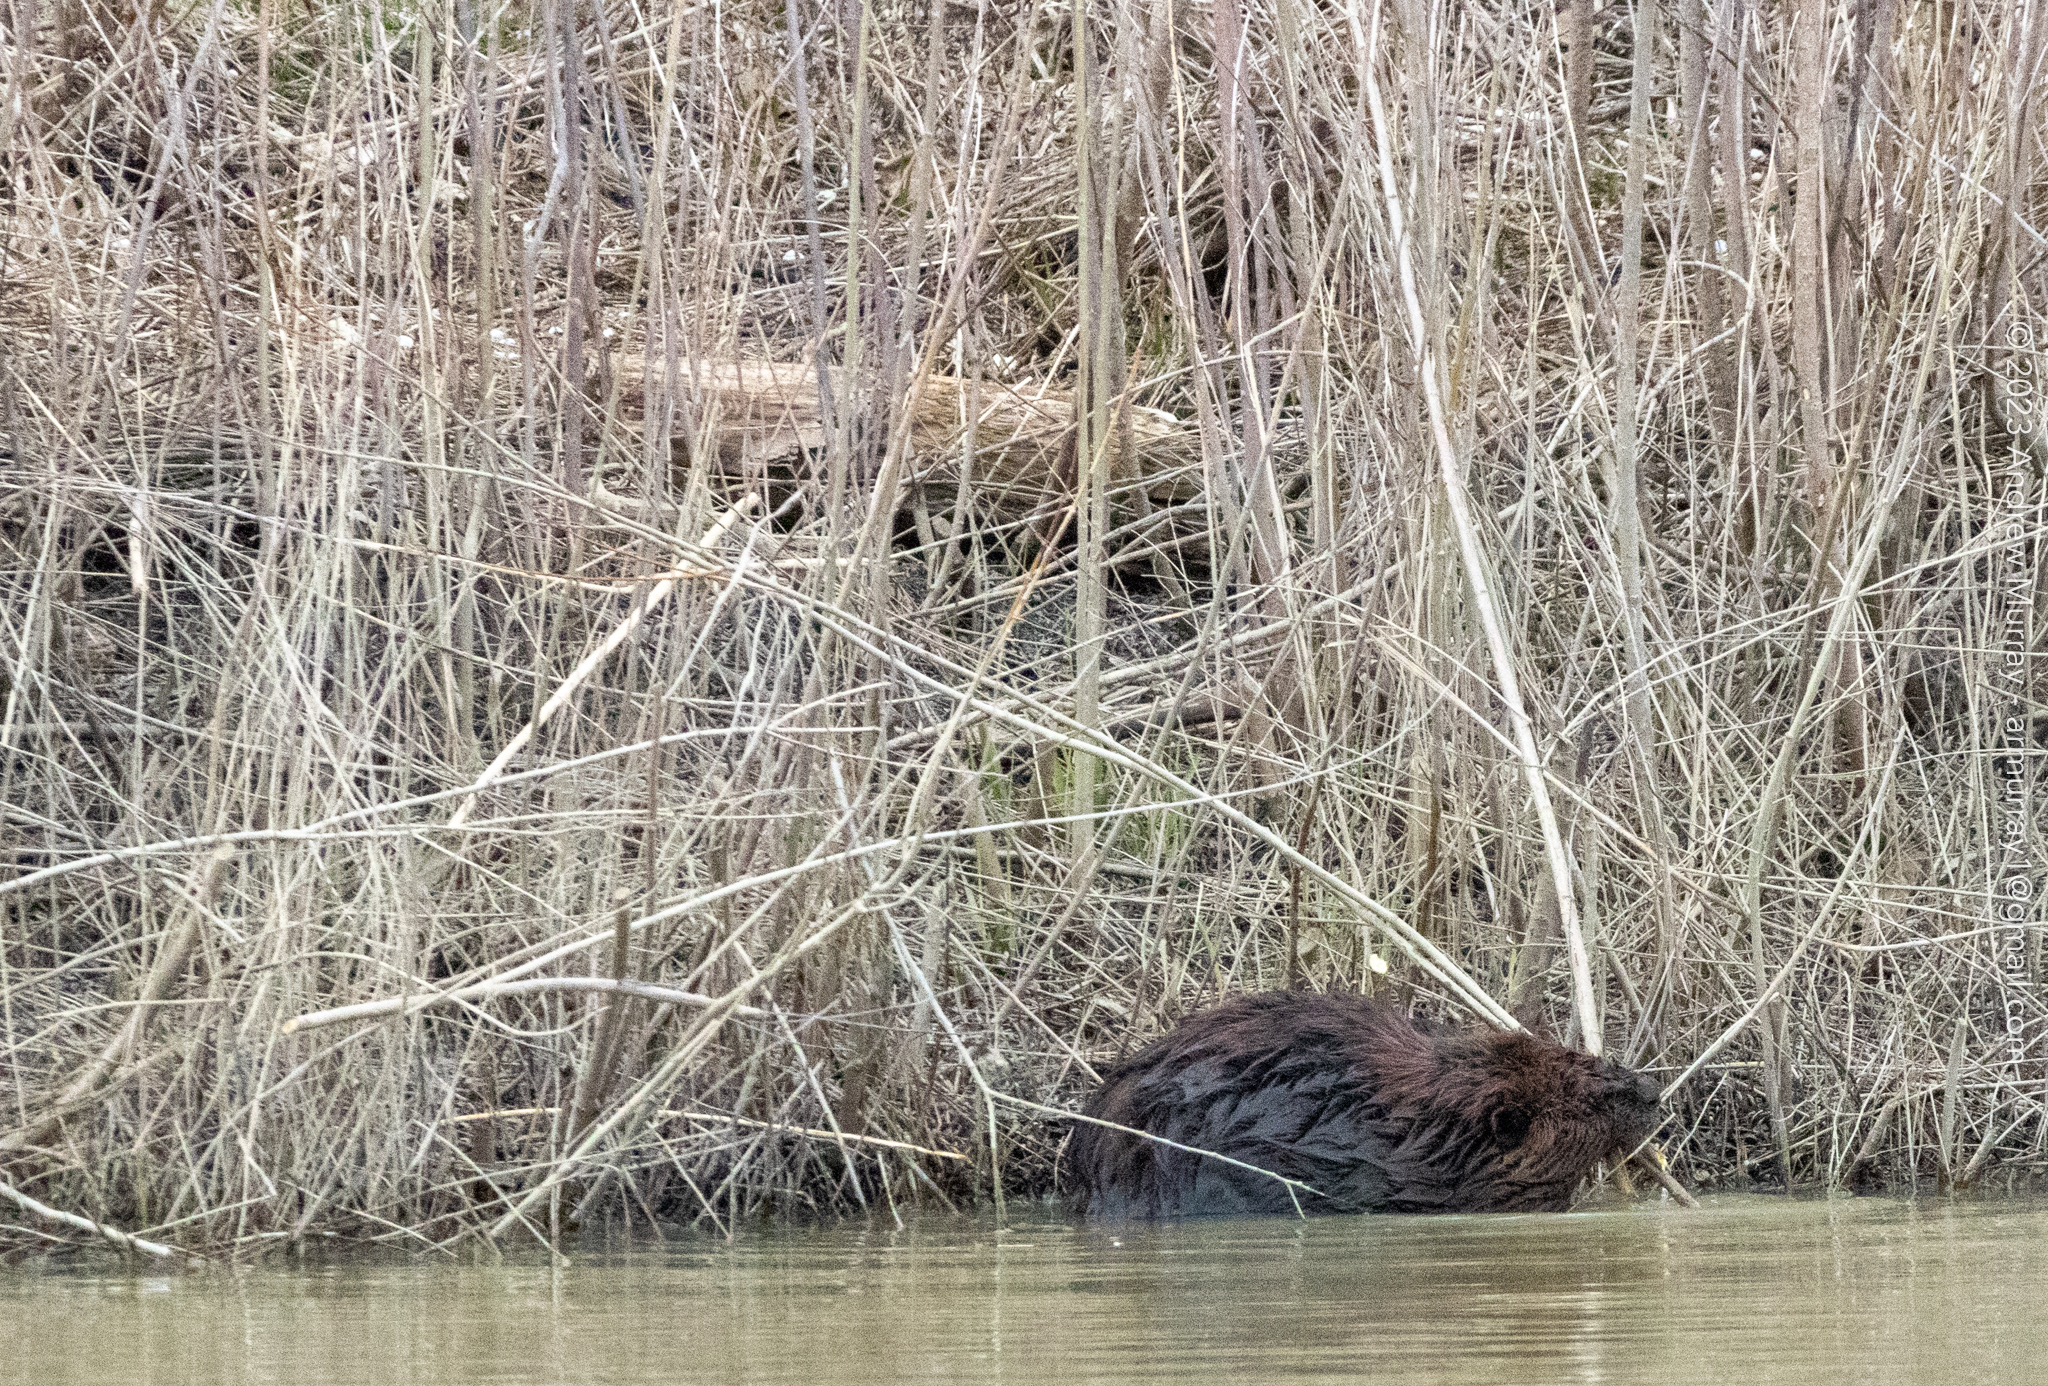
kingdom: Animalia
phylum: Chordata
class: Mammalia
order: Rodentia
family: Castoridae
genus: Castor
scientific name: Castor canadensis
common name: American beaver
